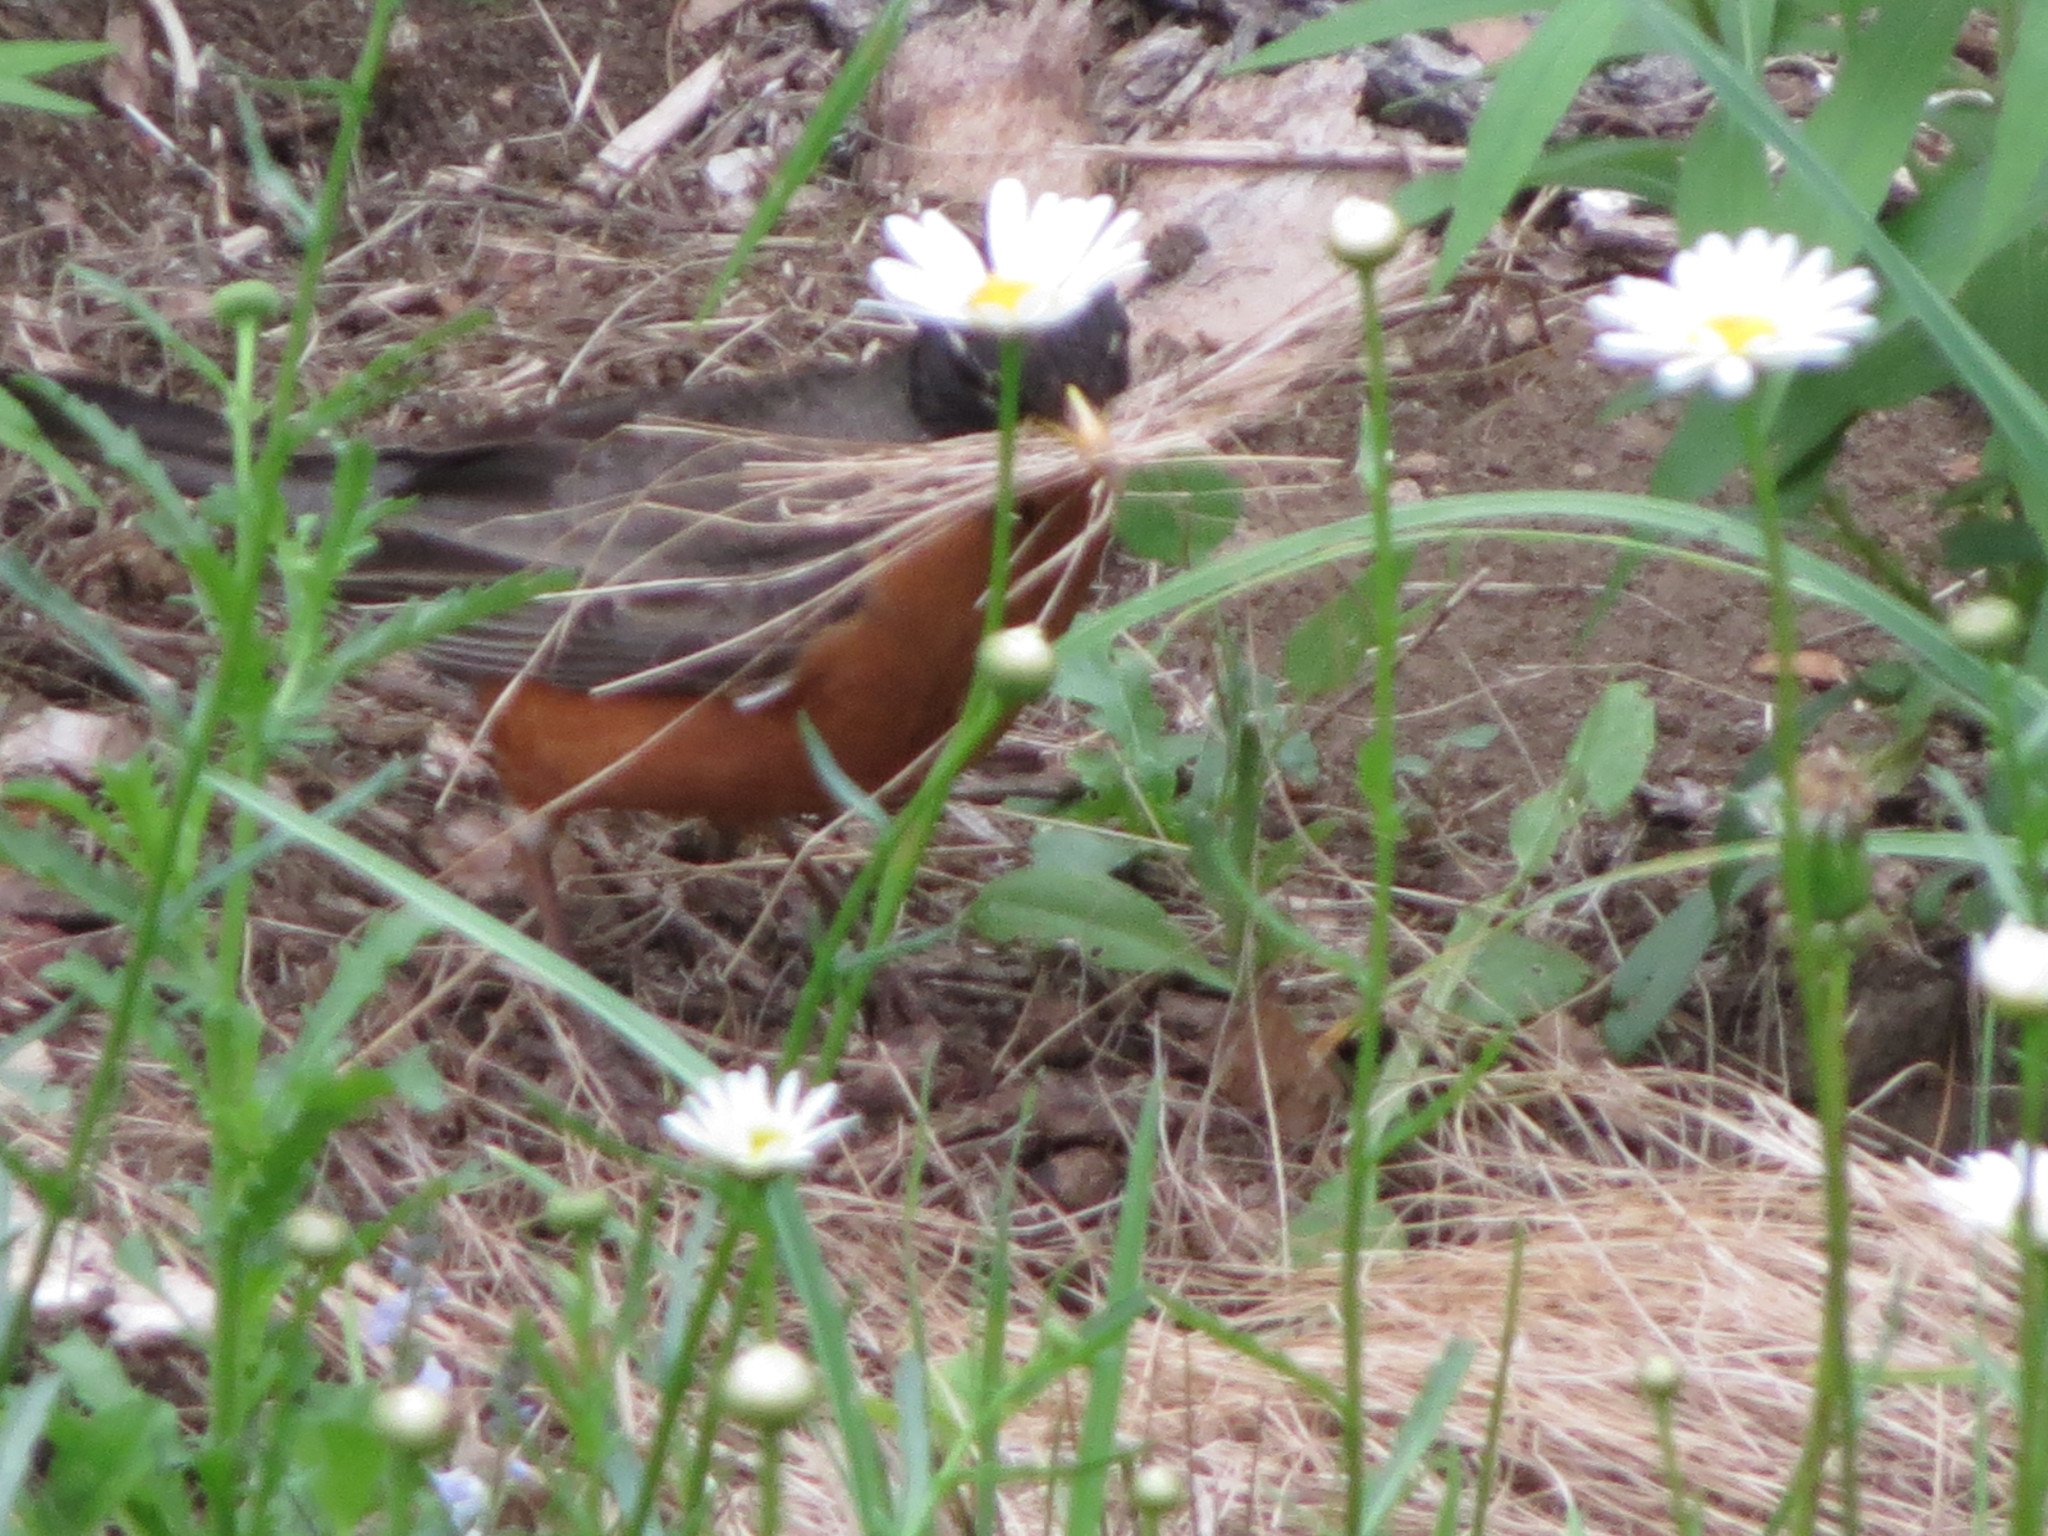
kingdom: Animalia
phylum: Chordata
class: Aves
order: Passeriformes
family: Turdidae
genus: Turdus
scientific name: Turdus migratorius
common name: American robin
